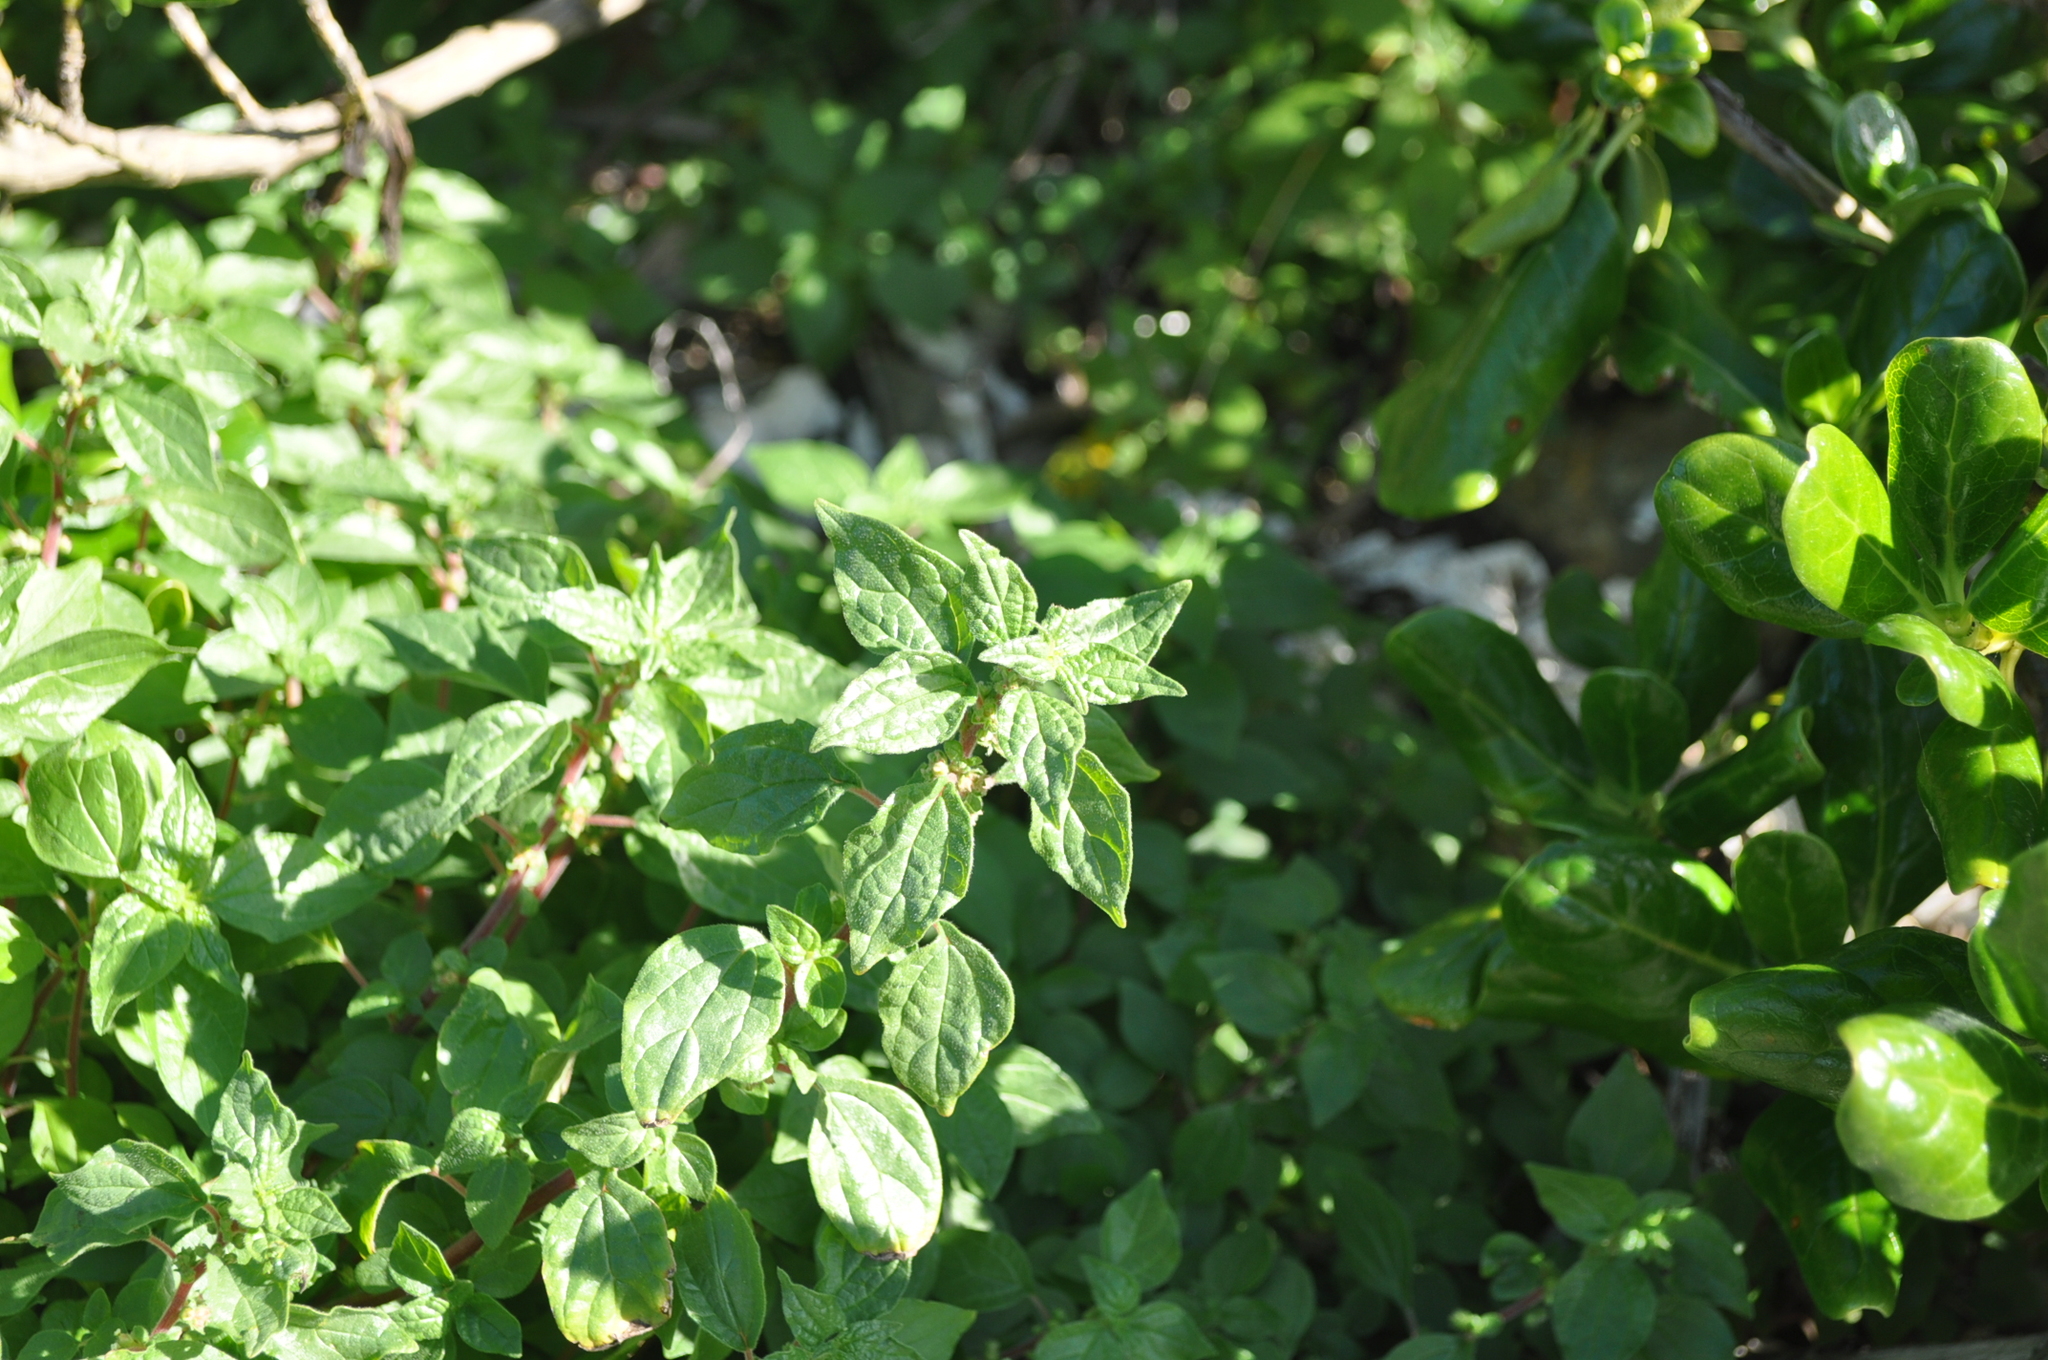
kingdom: Plantae
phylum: Tracheophyta
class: Magnoliopsida
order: Rosales
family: Urticaceae
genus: Parietaria
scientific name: Parietaria judaica
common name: Pellitory-of-the-wall
